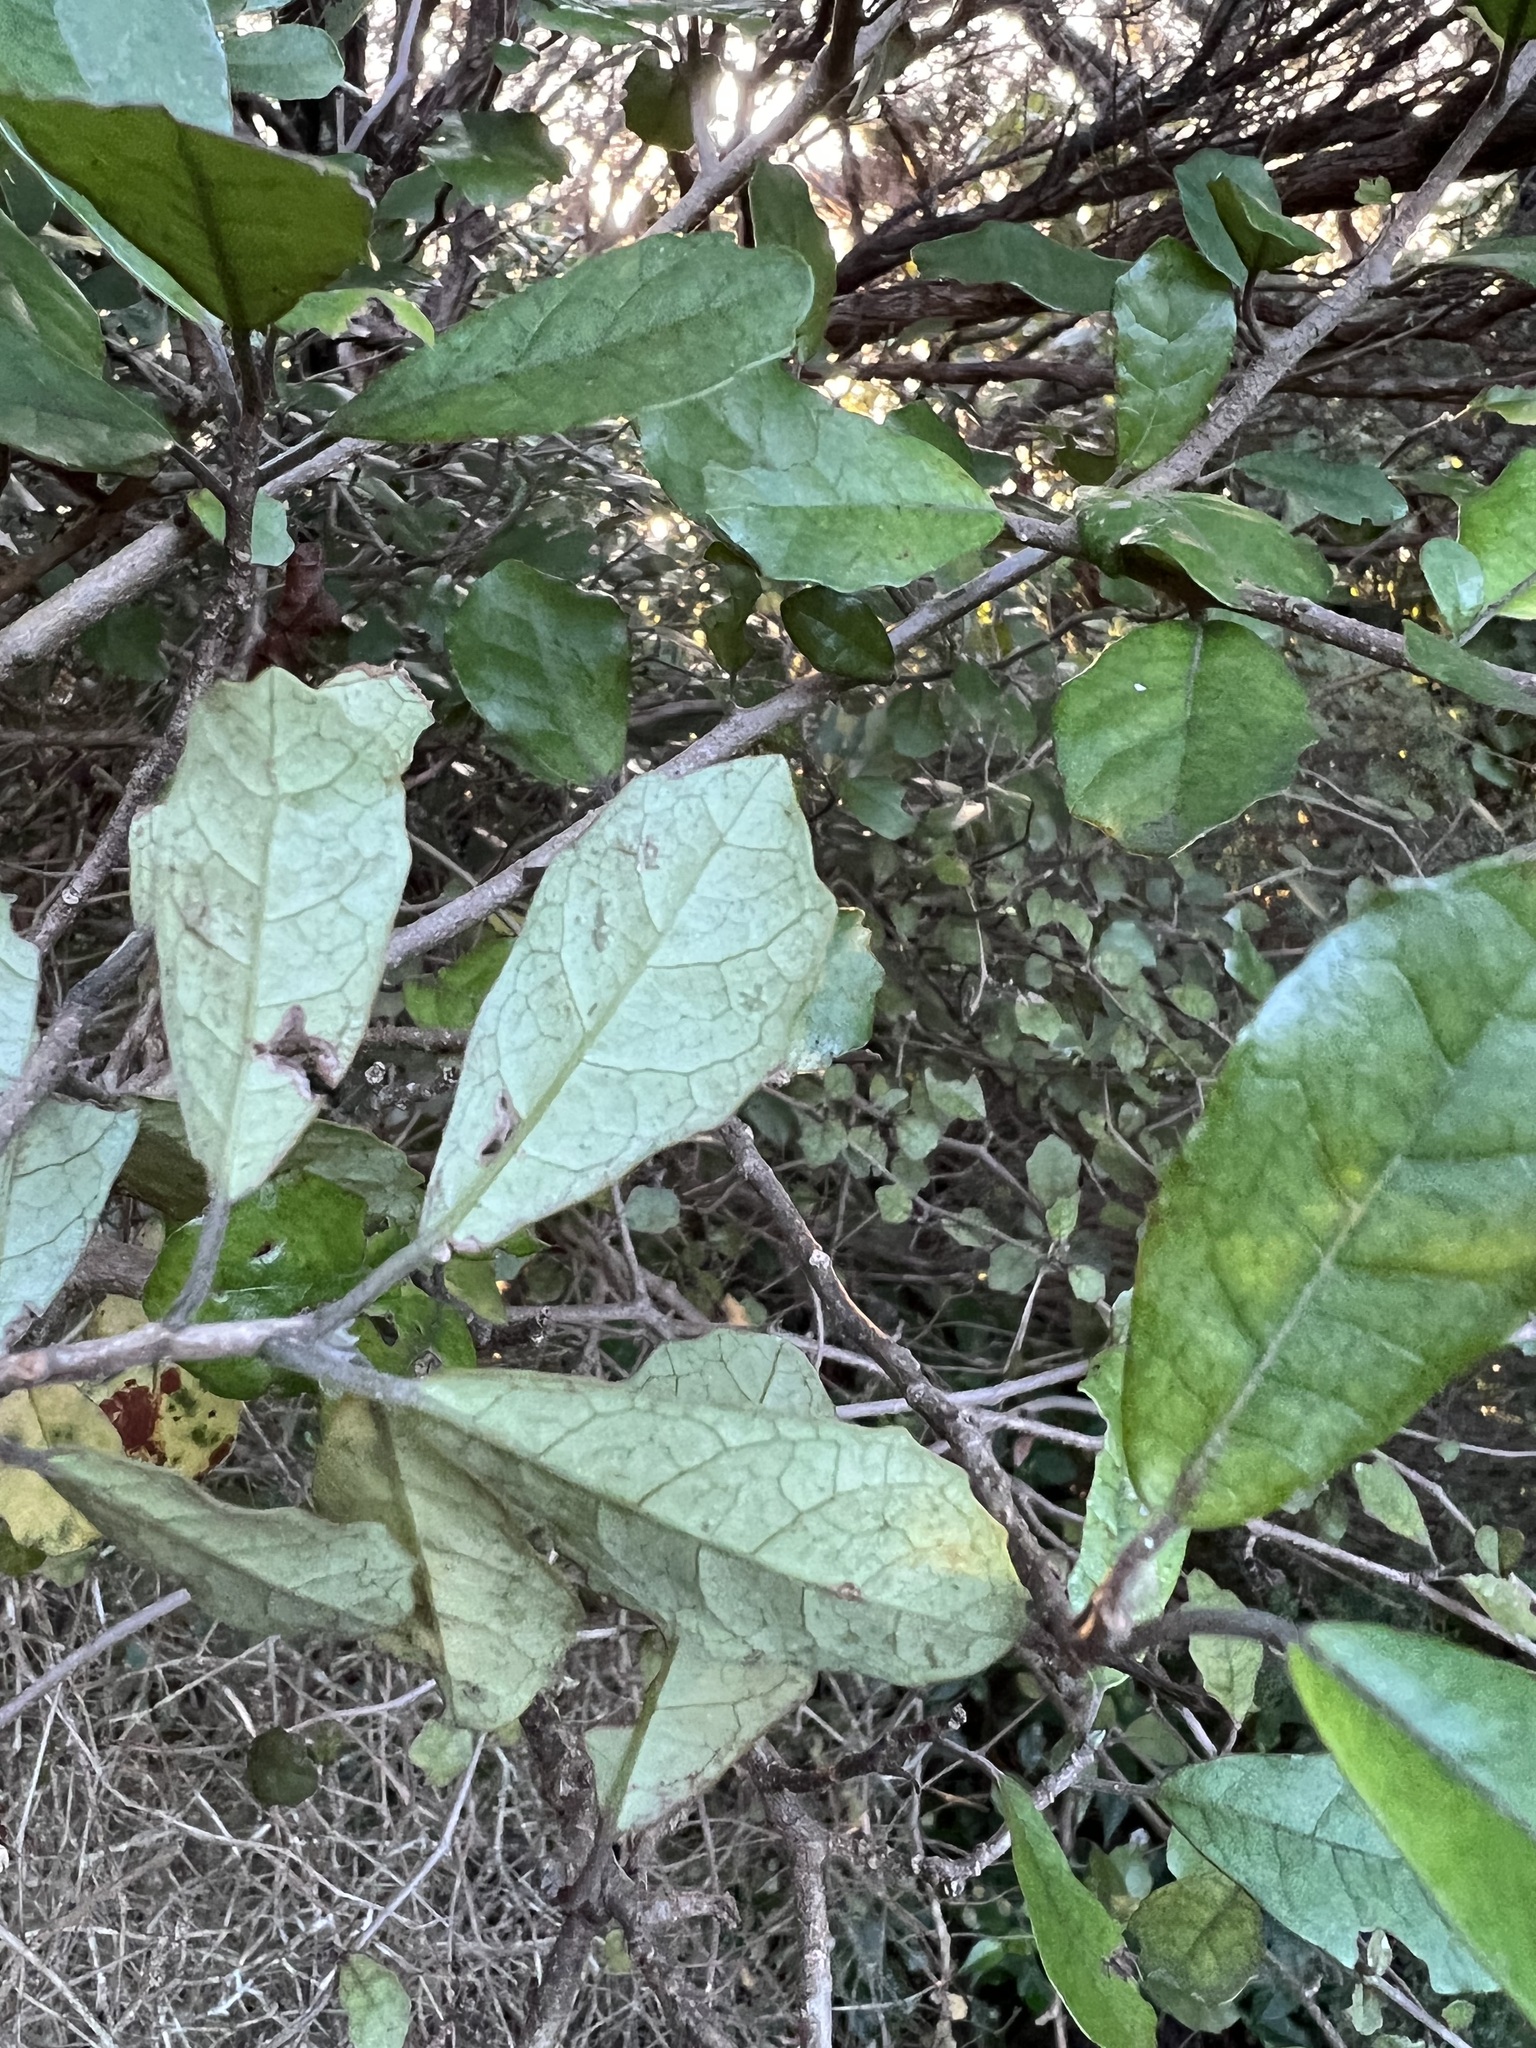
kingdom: Plantae
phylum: Tracheophyta
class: Magnoliopsida
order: Apiales
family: Pennantiaceae
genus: Pennantia
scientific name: Pennantia corymbosa
